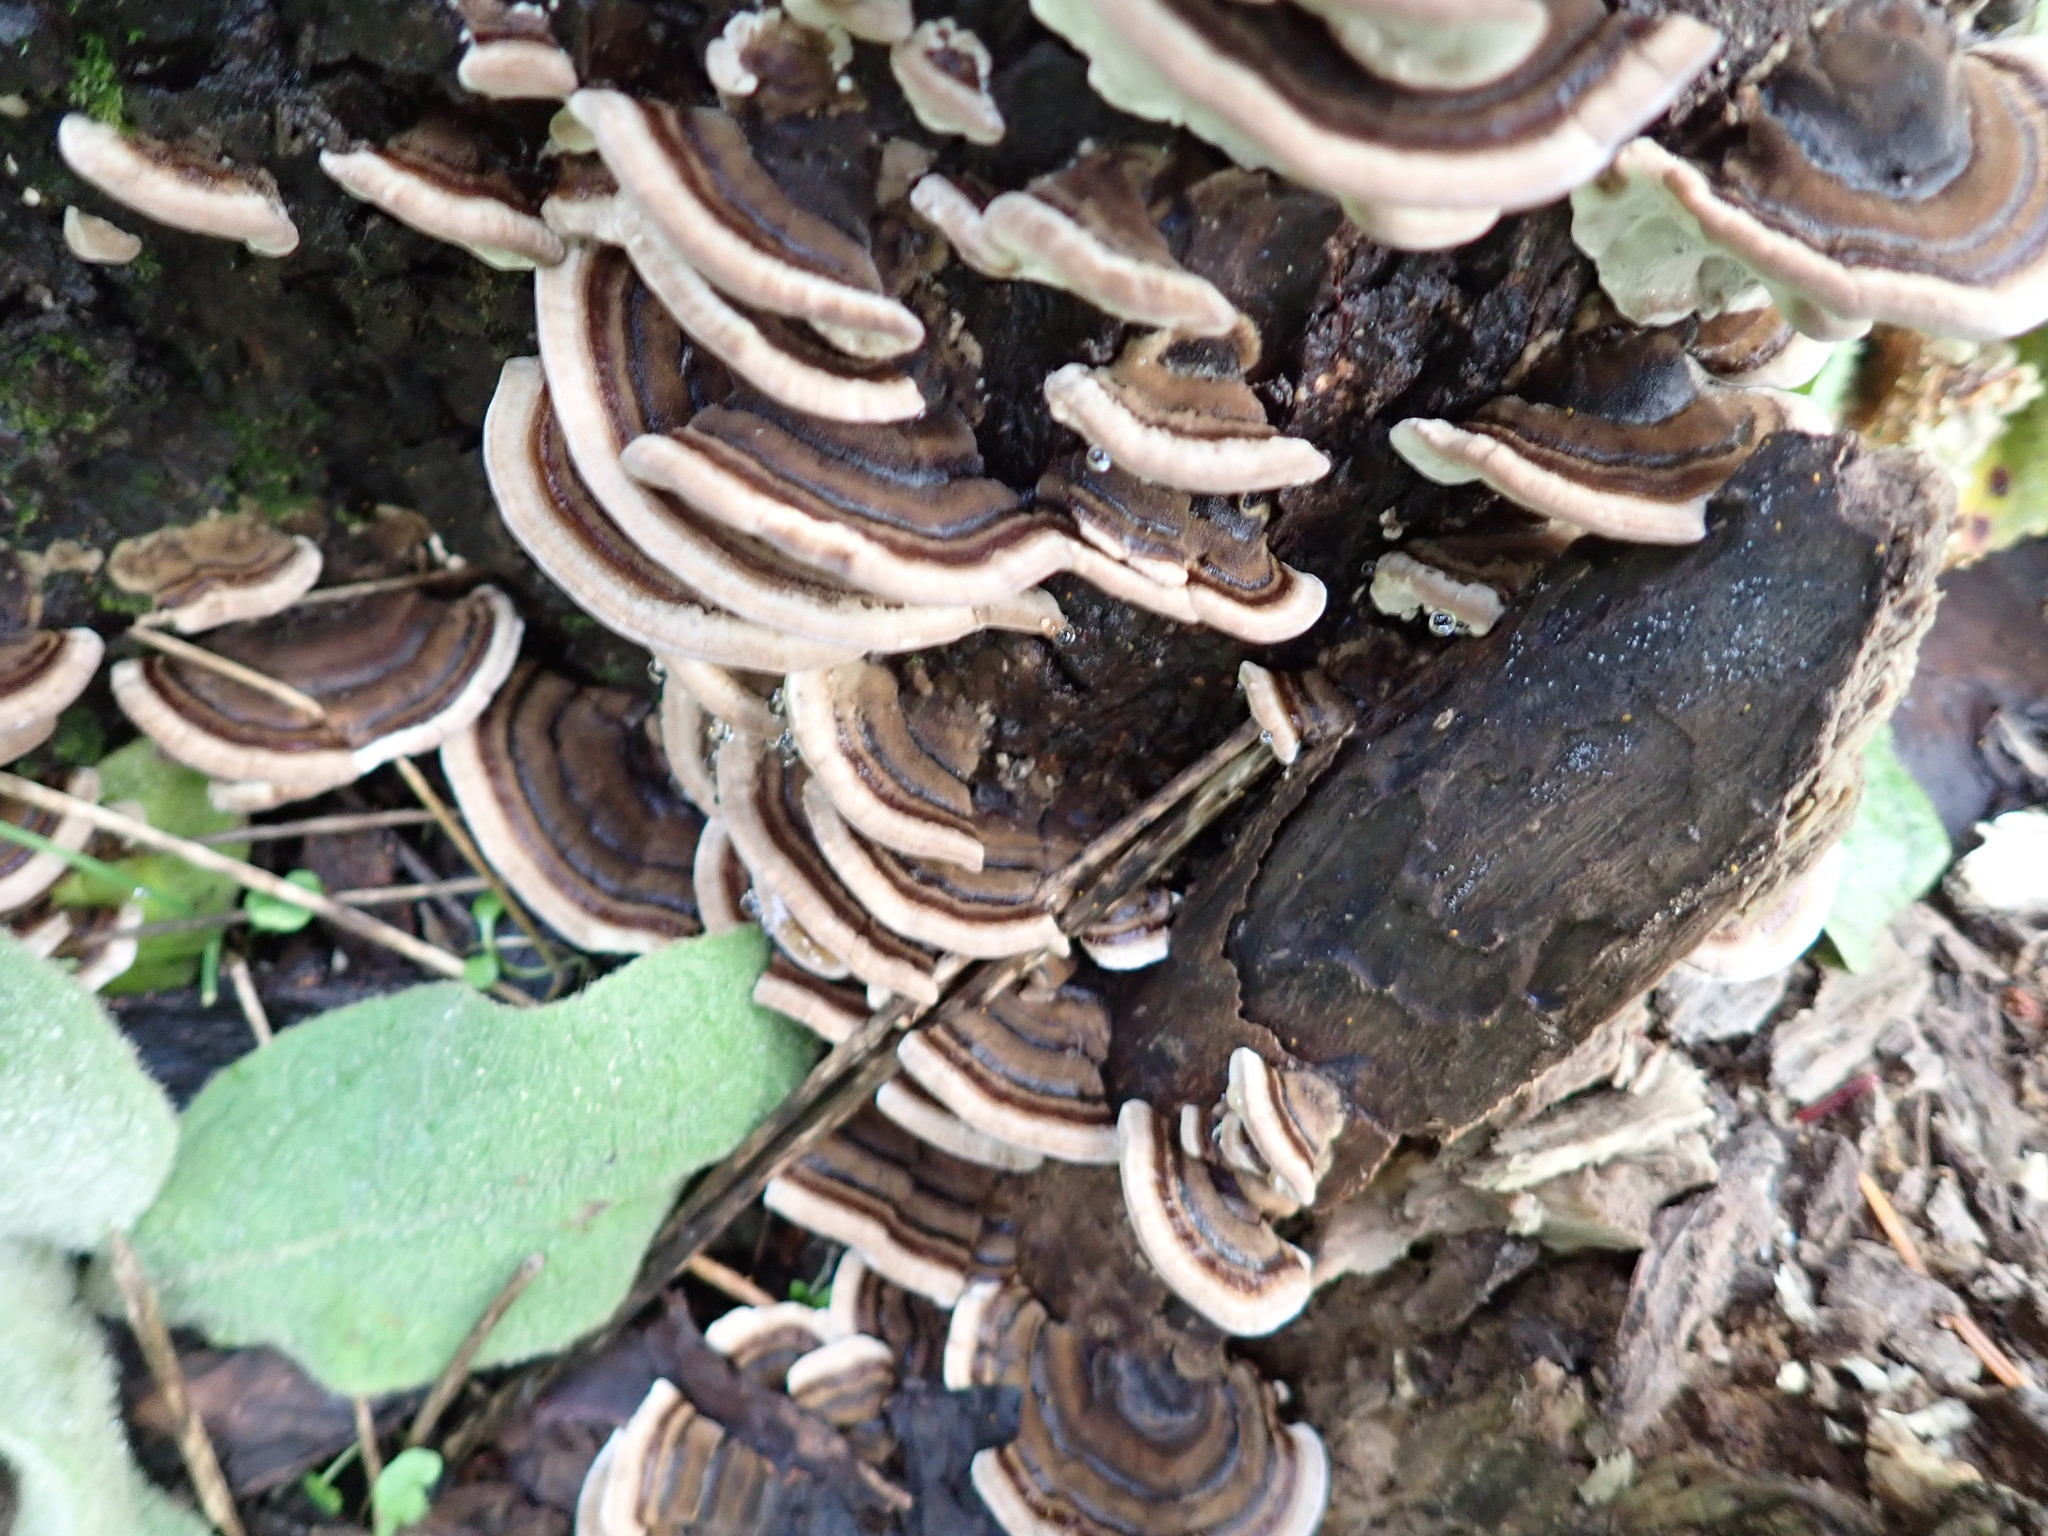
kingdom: Fungi
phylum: Basidiomycota
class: Agaricomycetes
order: Polyporales
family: Polyporaceae
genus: Trametes
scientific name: Trametes versicolor
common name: Turkeytail
